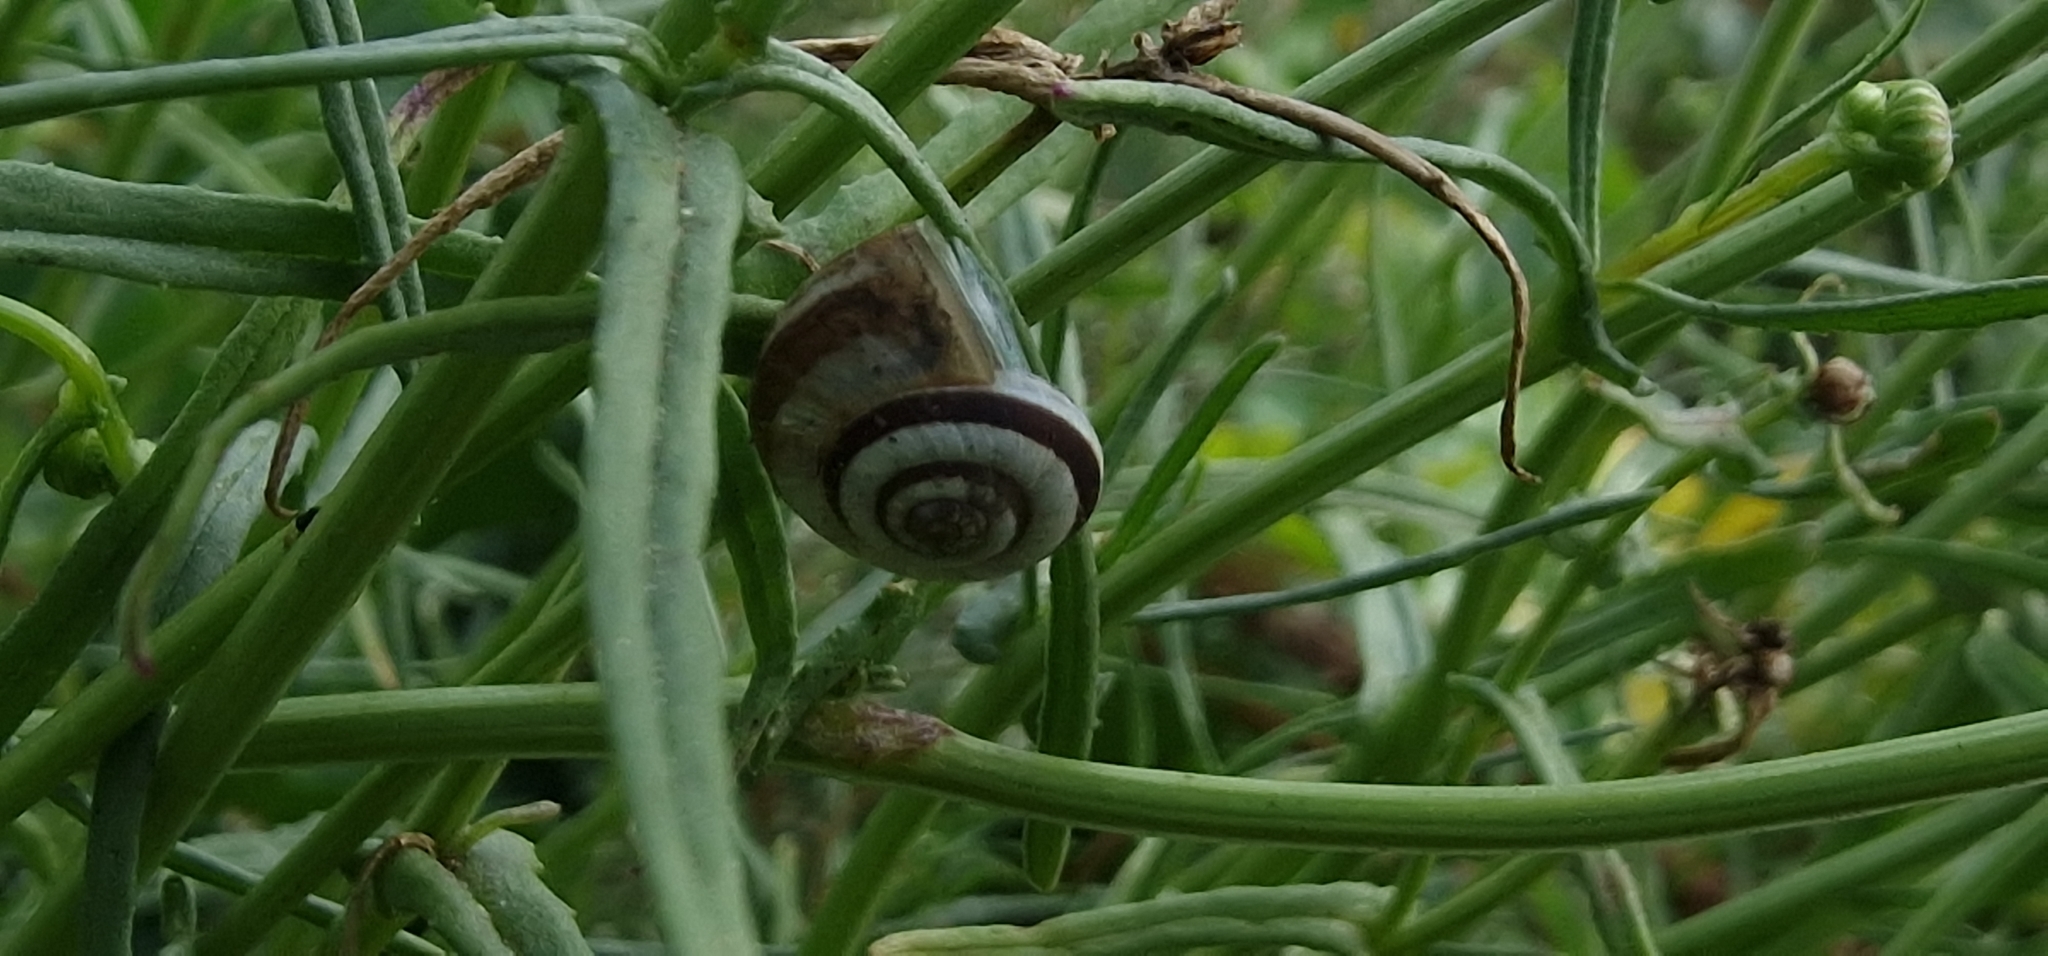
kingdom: Animalia
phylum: Mollusca
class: Gastropoda
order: Stylommatophora
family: Geomitridae
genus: Cernuella
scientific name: Cernuella virgata
